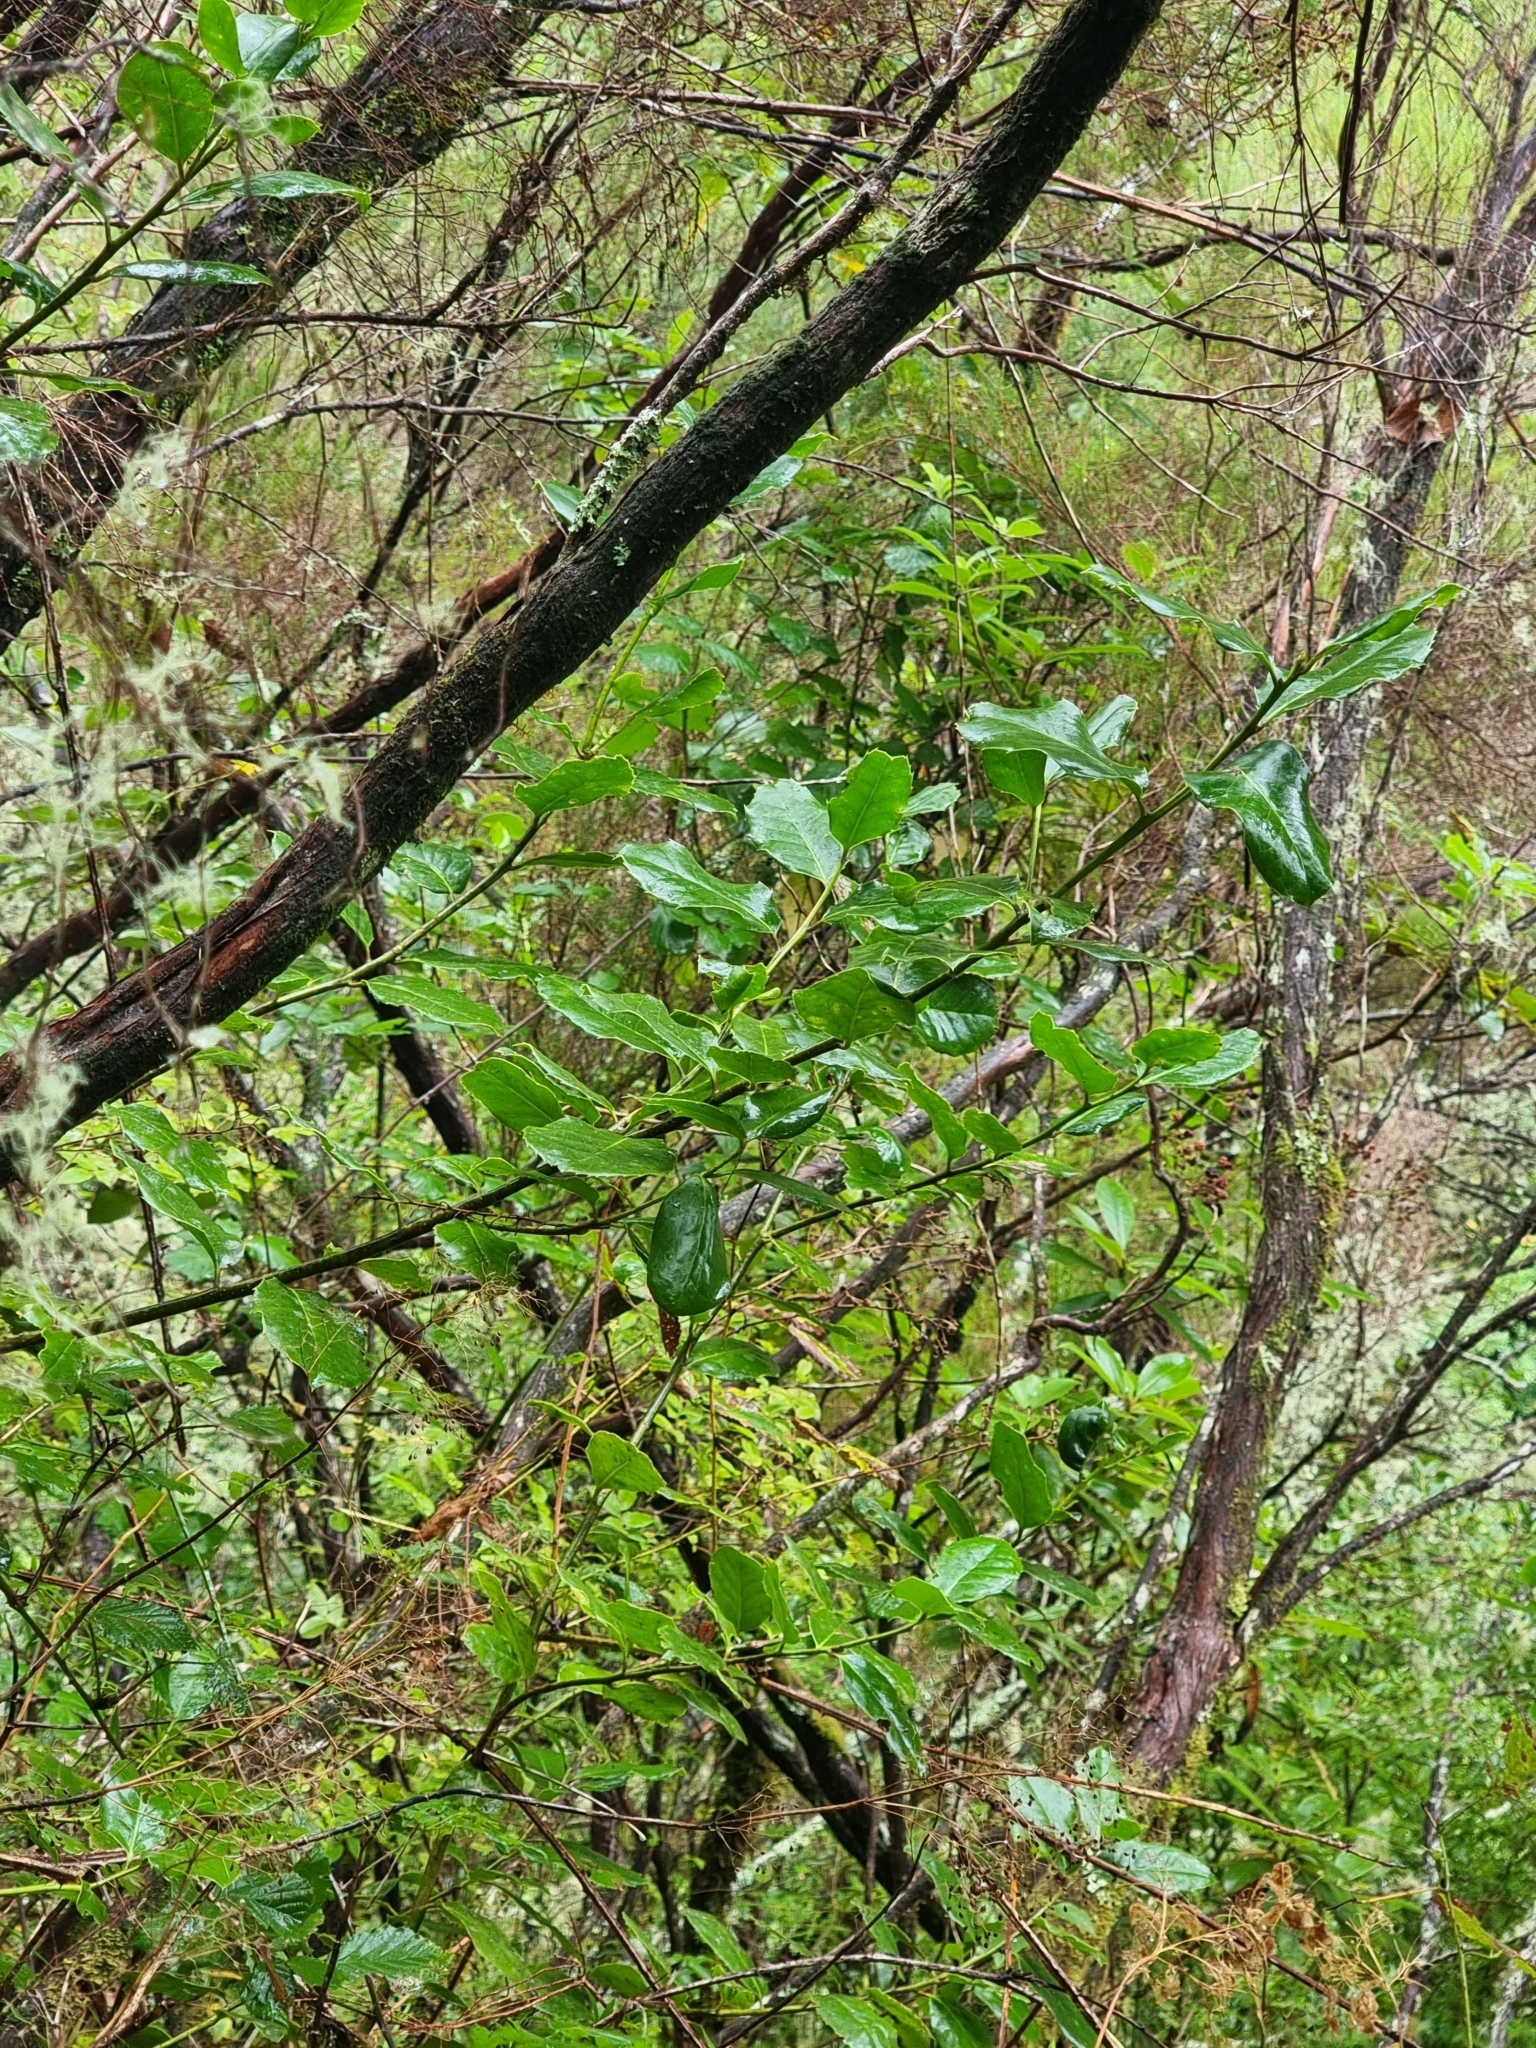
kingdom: Plantae
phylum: Tracheophyta
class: Magnoliopsida
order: Aquifoliales
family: Aquifoliaceae
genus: Ilex
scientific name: Ilex perado
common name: Madeira holly
